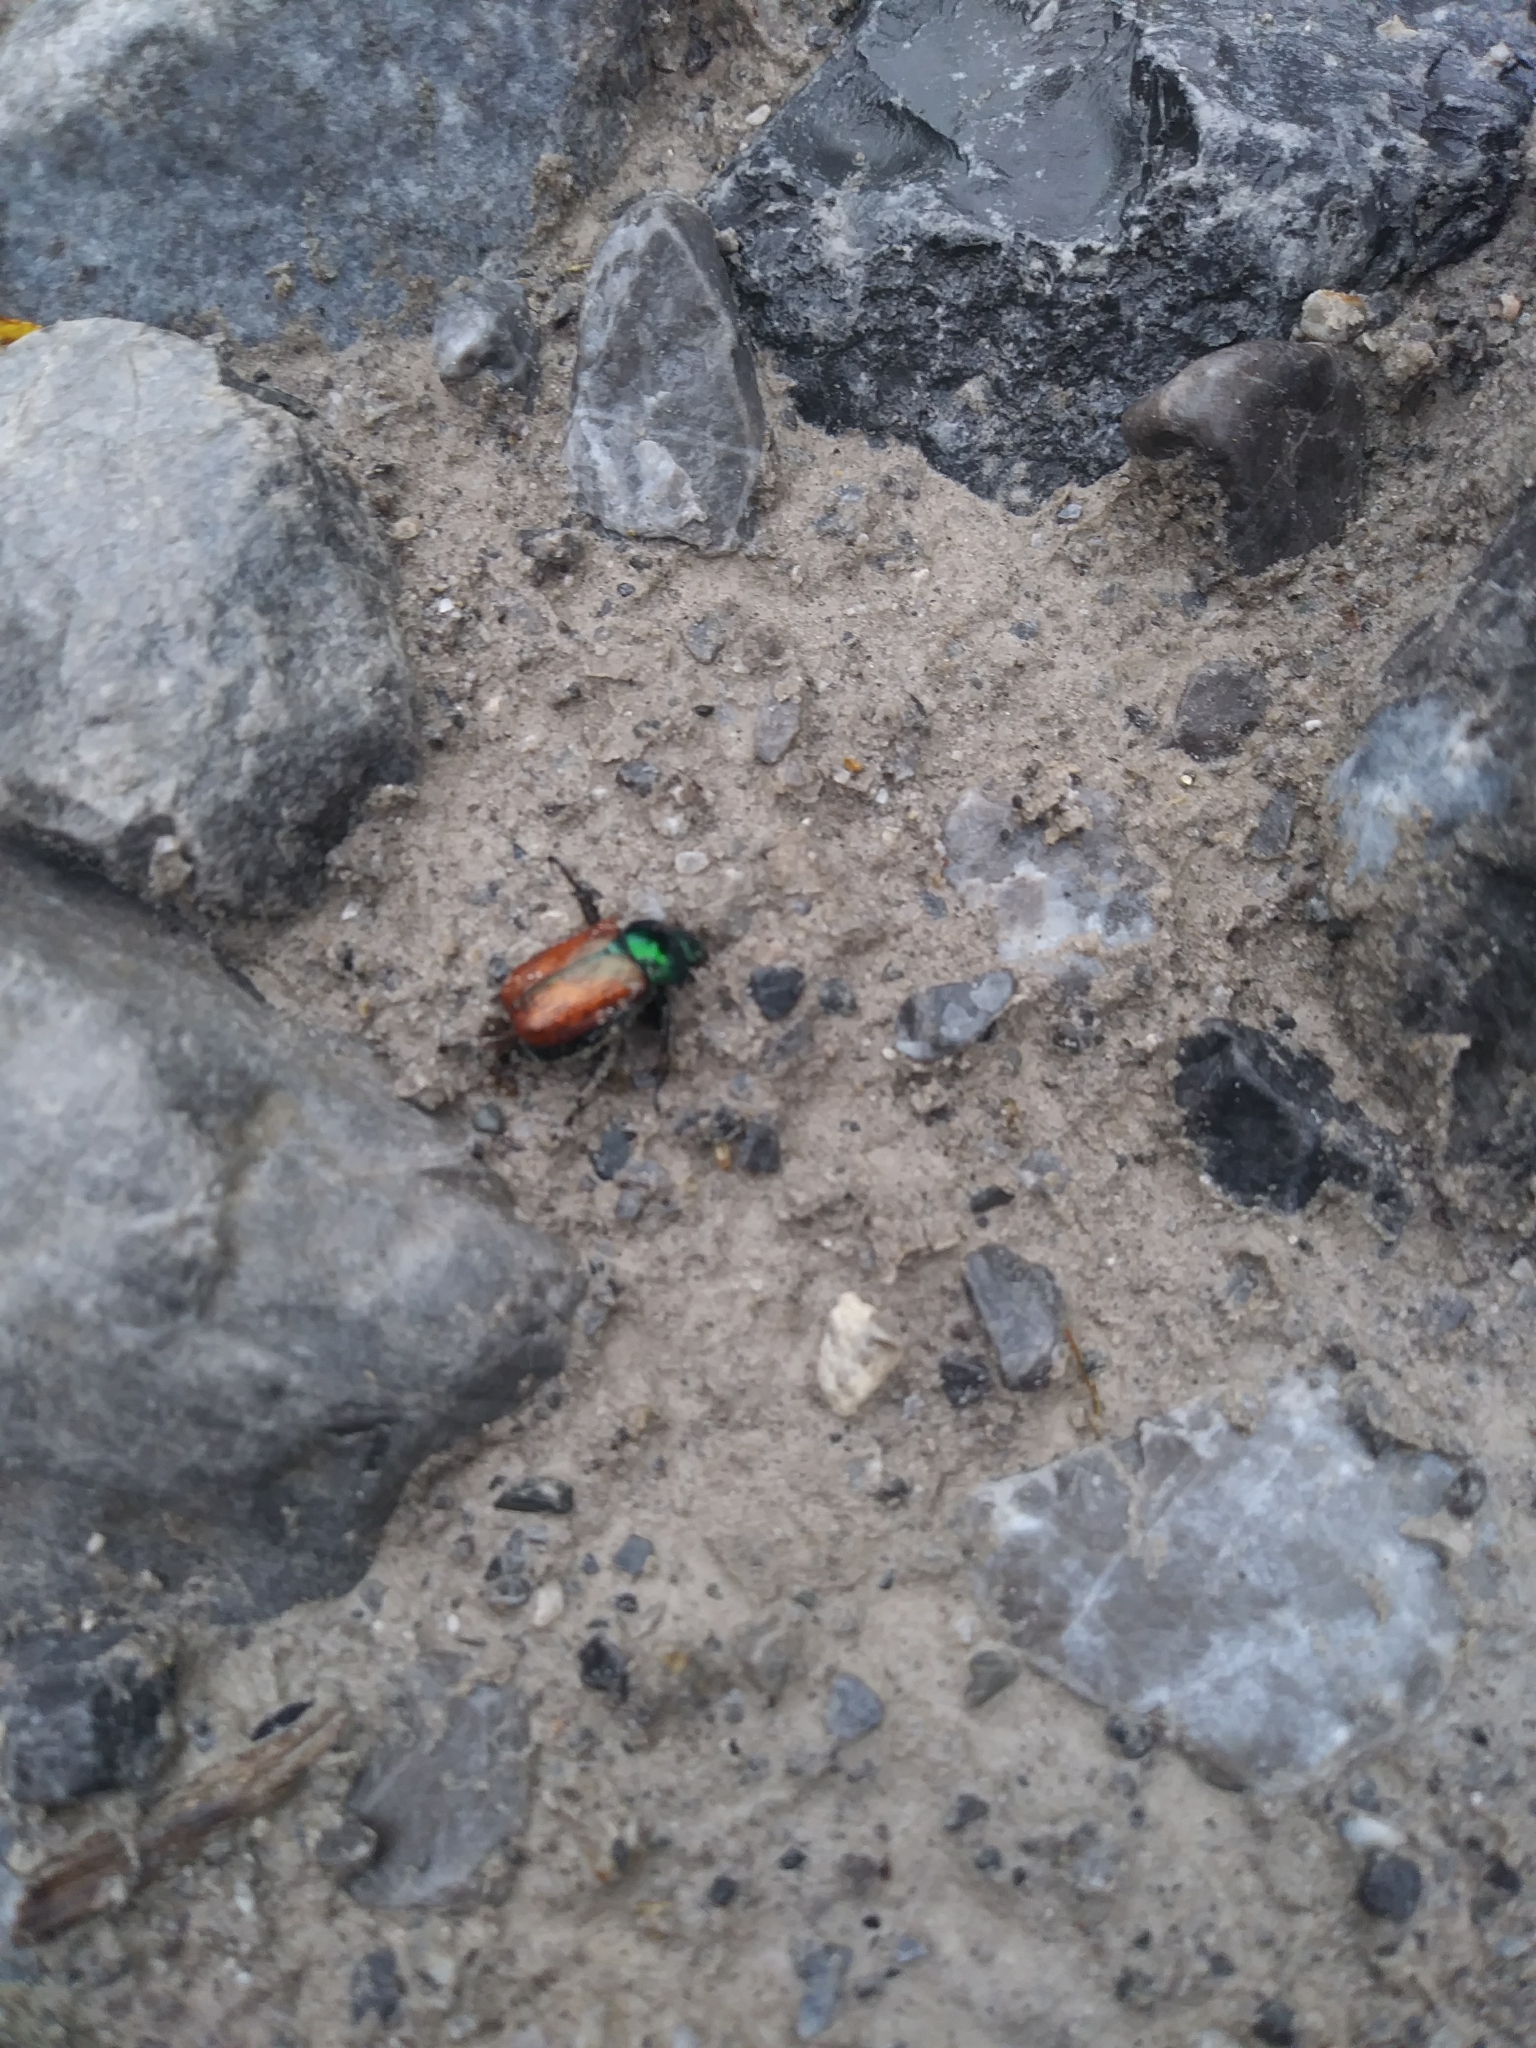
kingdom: Animalia
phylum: Arthropoda
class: Insecta
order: Coleoptera
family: Scarabaeidae
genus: Phyllopertha
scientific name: Phyllopertha horticola
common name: Garden chafer
